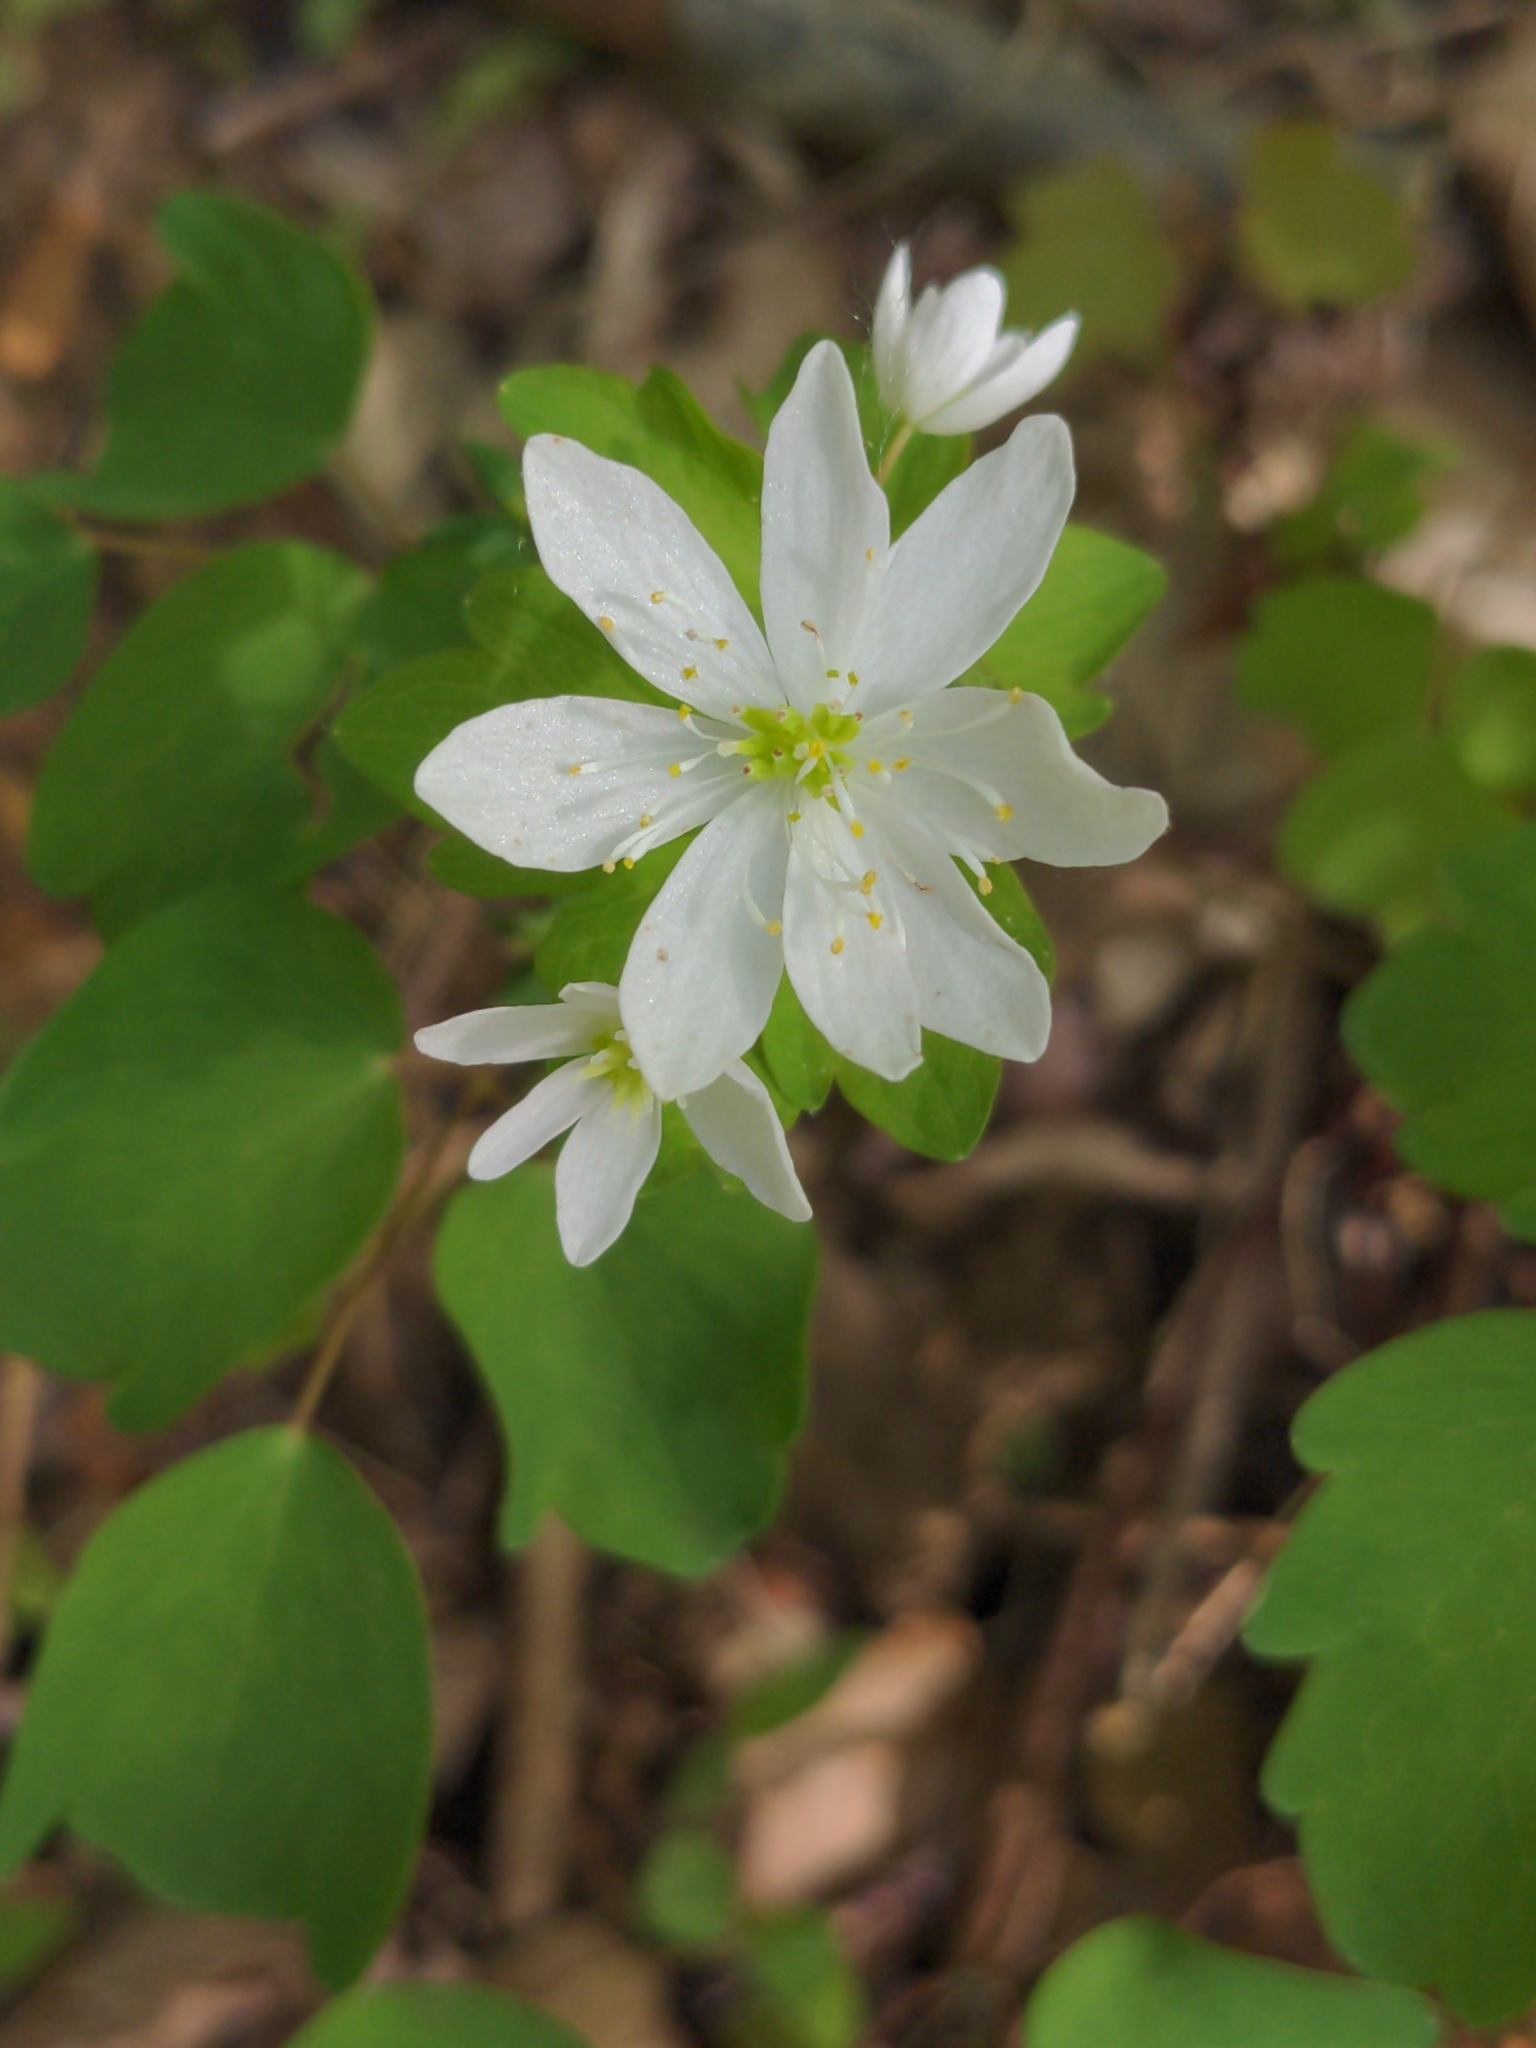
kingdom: Plantae
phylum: Tracheophyta
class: Magnoliopsida
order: Ranunculales
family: Ranunculaceae
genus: Thalictrum
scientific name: Thalictrum thalictroides
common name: Rue-anemone
